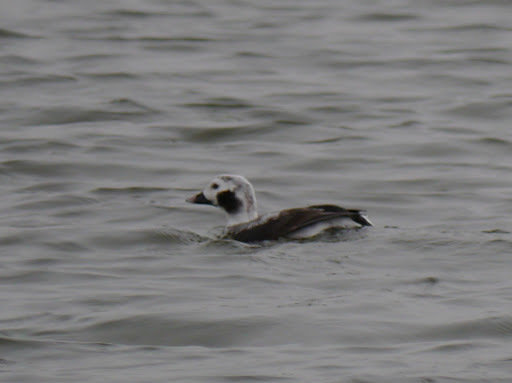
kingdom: Animalia
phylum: Chordata
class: Aves
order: Anseriformes
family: Anatidae
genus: Clangula
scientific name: Clangula hyemalis
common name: Long-tailed duck
